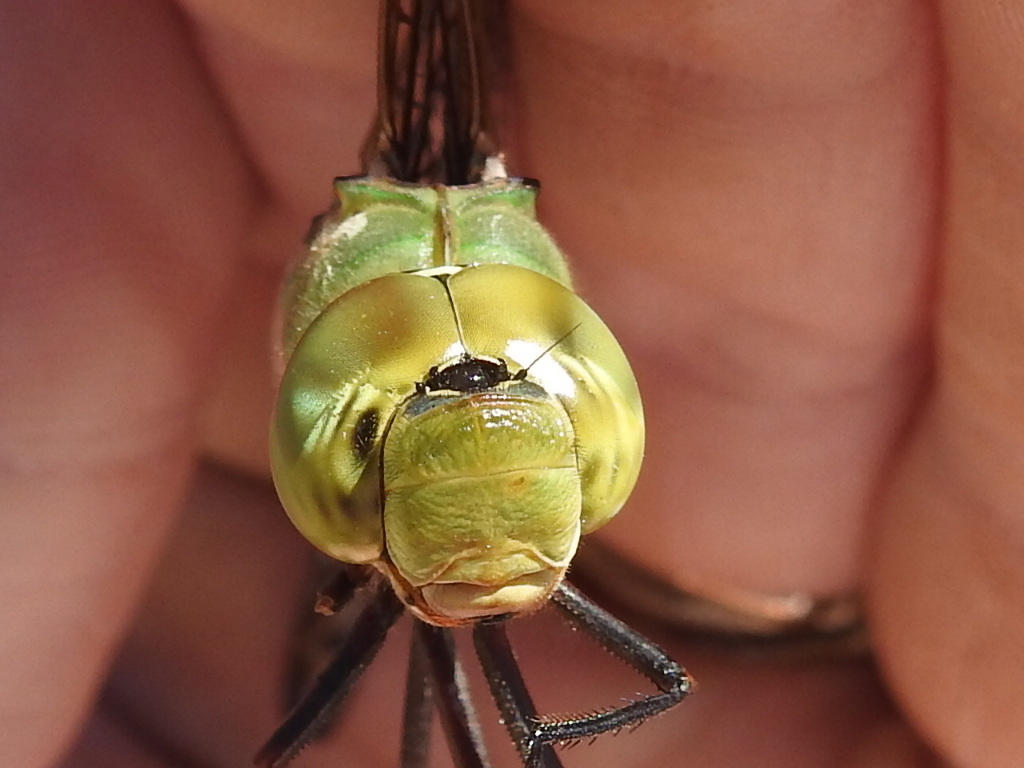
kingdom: Animalia
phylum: Arthropoda
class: Insecta
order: Odonata
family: Aeshnidae
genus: Anax
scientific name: Anax junius
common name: Common green darner
